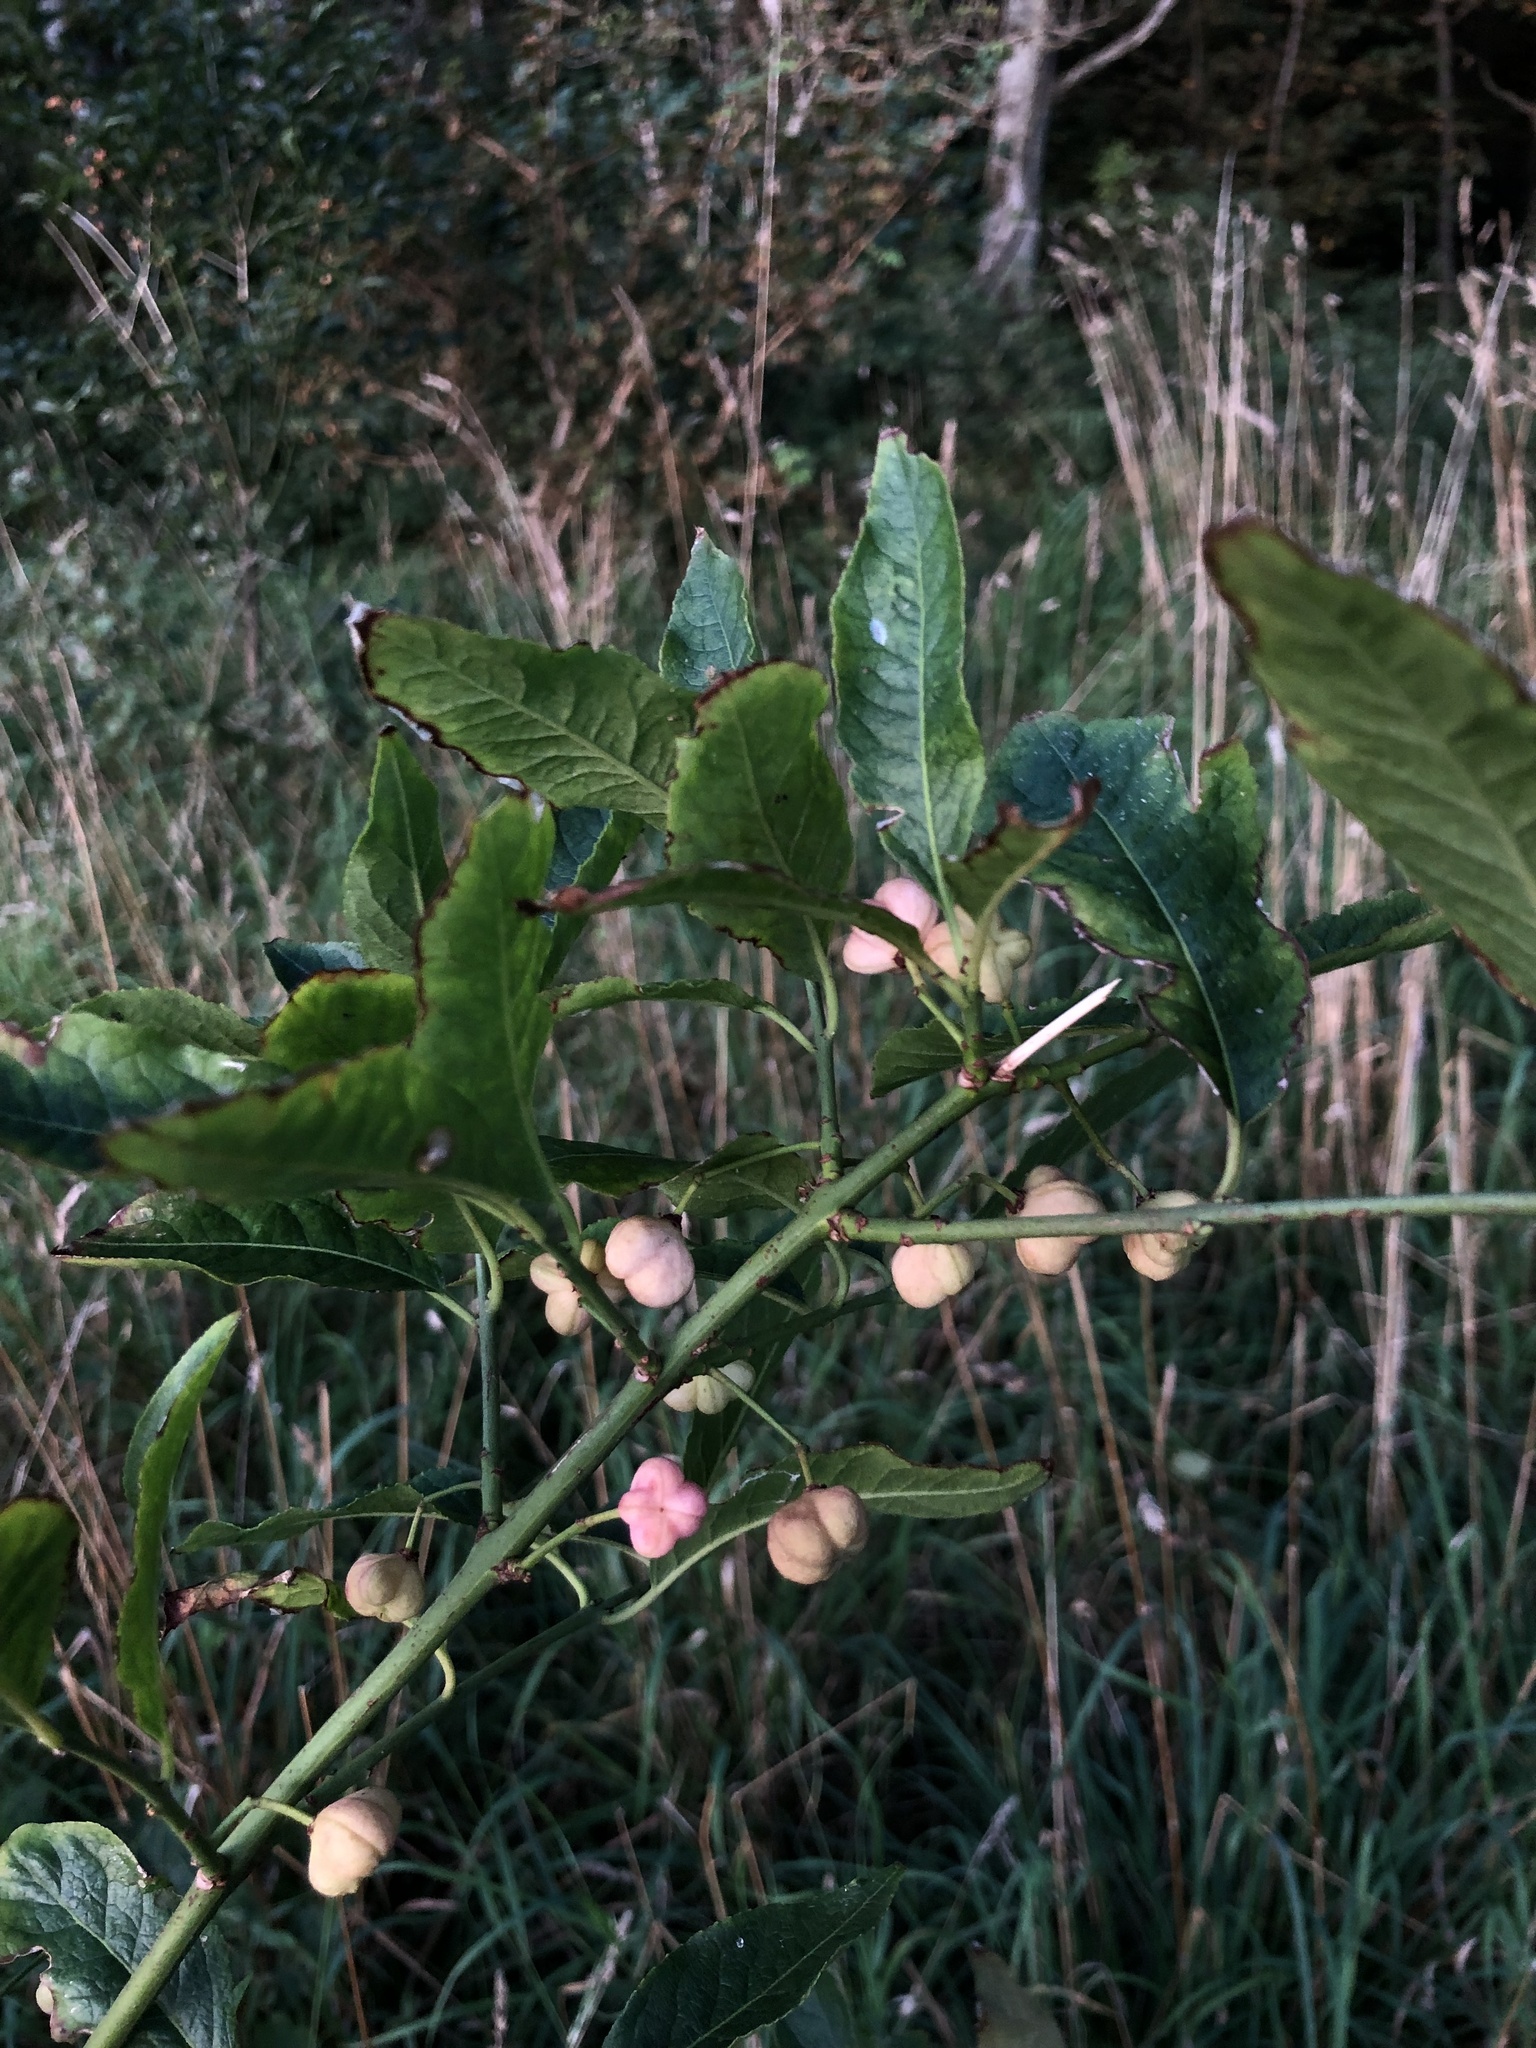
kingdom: Plantae
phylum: Tracheophyta
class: Magnoliopsida
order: Celastrales
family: Celastraceae
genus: Euonymus
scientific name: Euonymus europaeus
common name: Spindle
